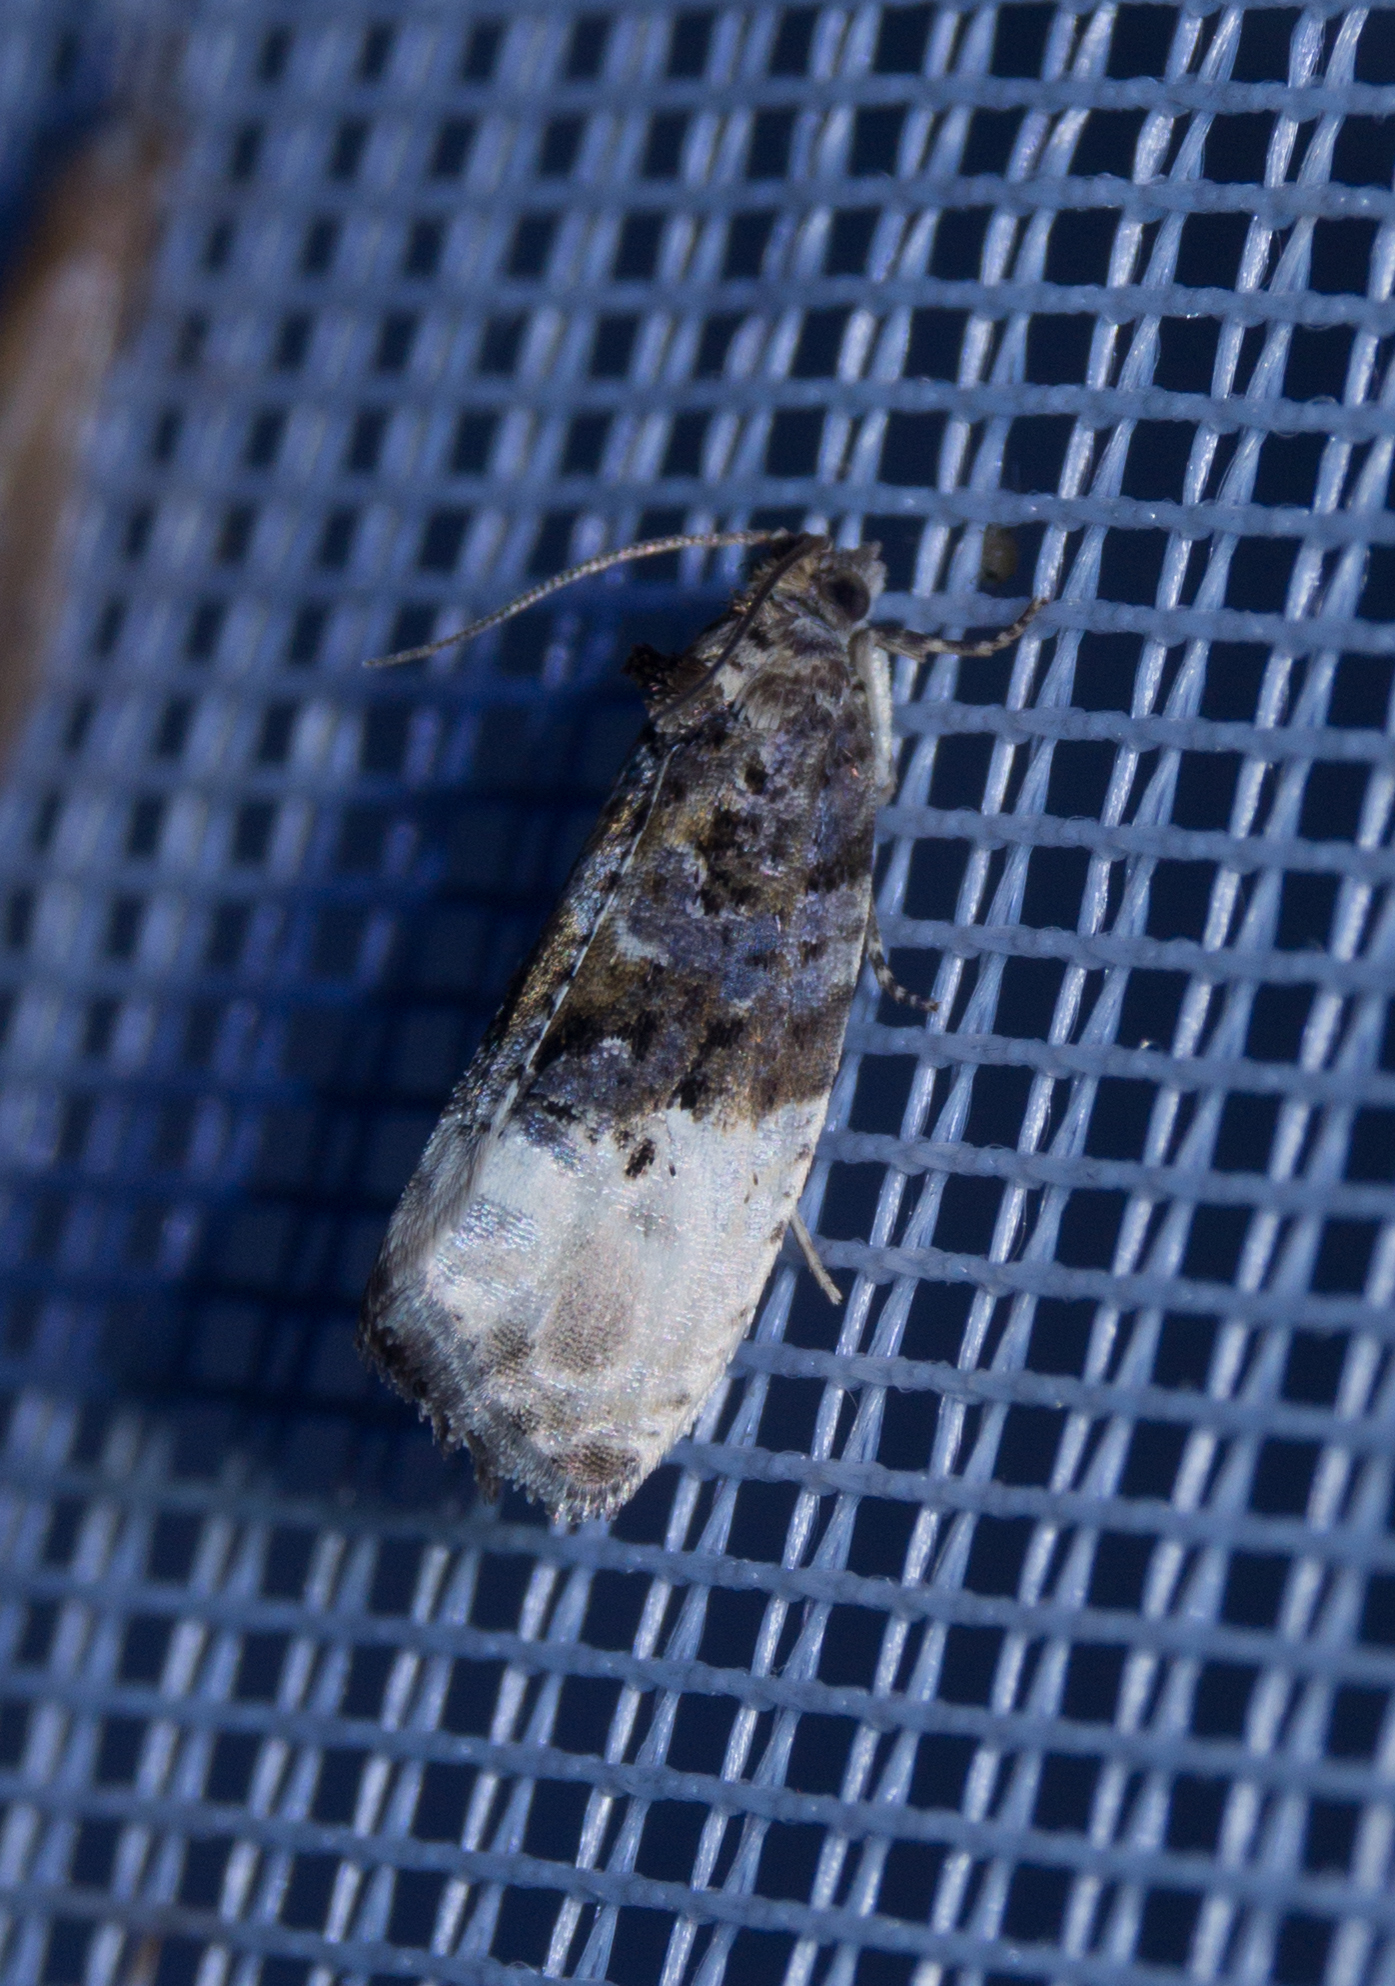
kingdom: Animalia
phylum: Arthropoda
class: Insecta
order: Lepidoptera
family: Tortricidae
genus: Hedya
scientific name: Hedya nubiferana
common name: Marbled orchard tortrix
